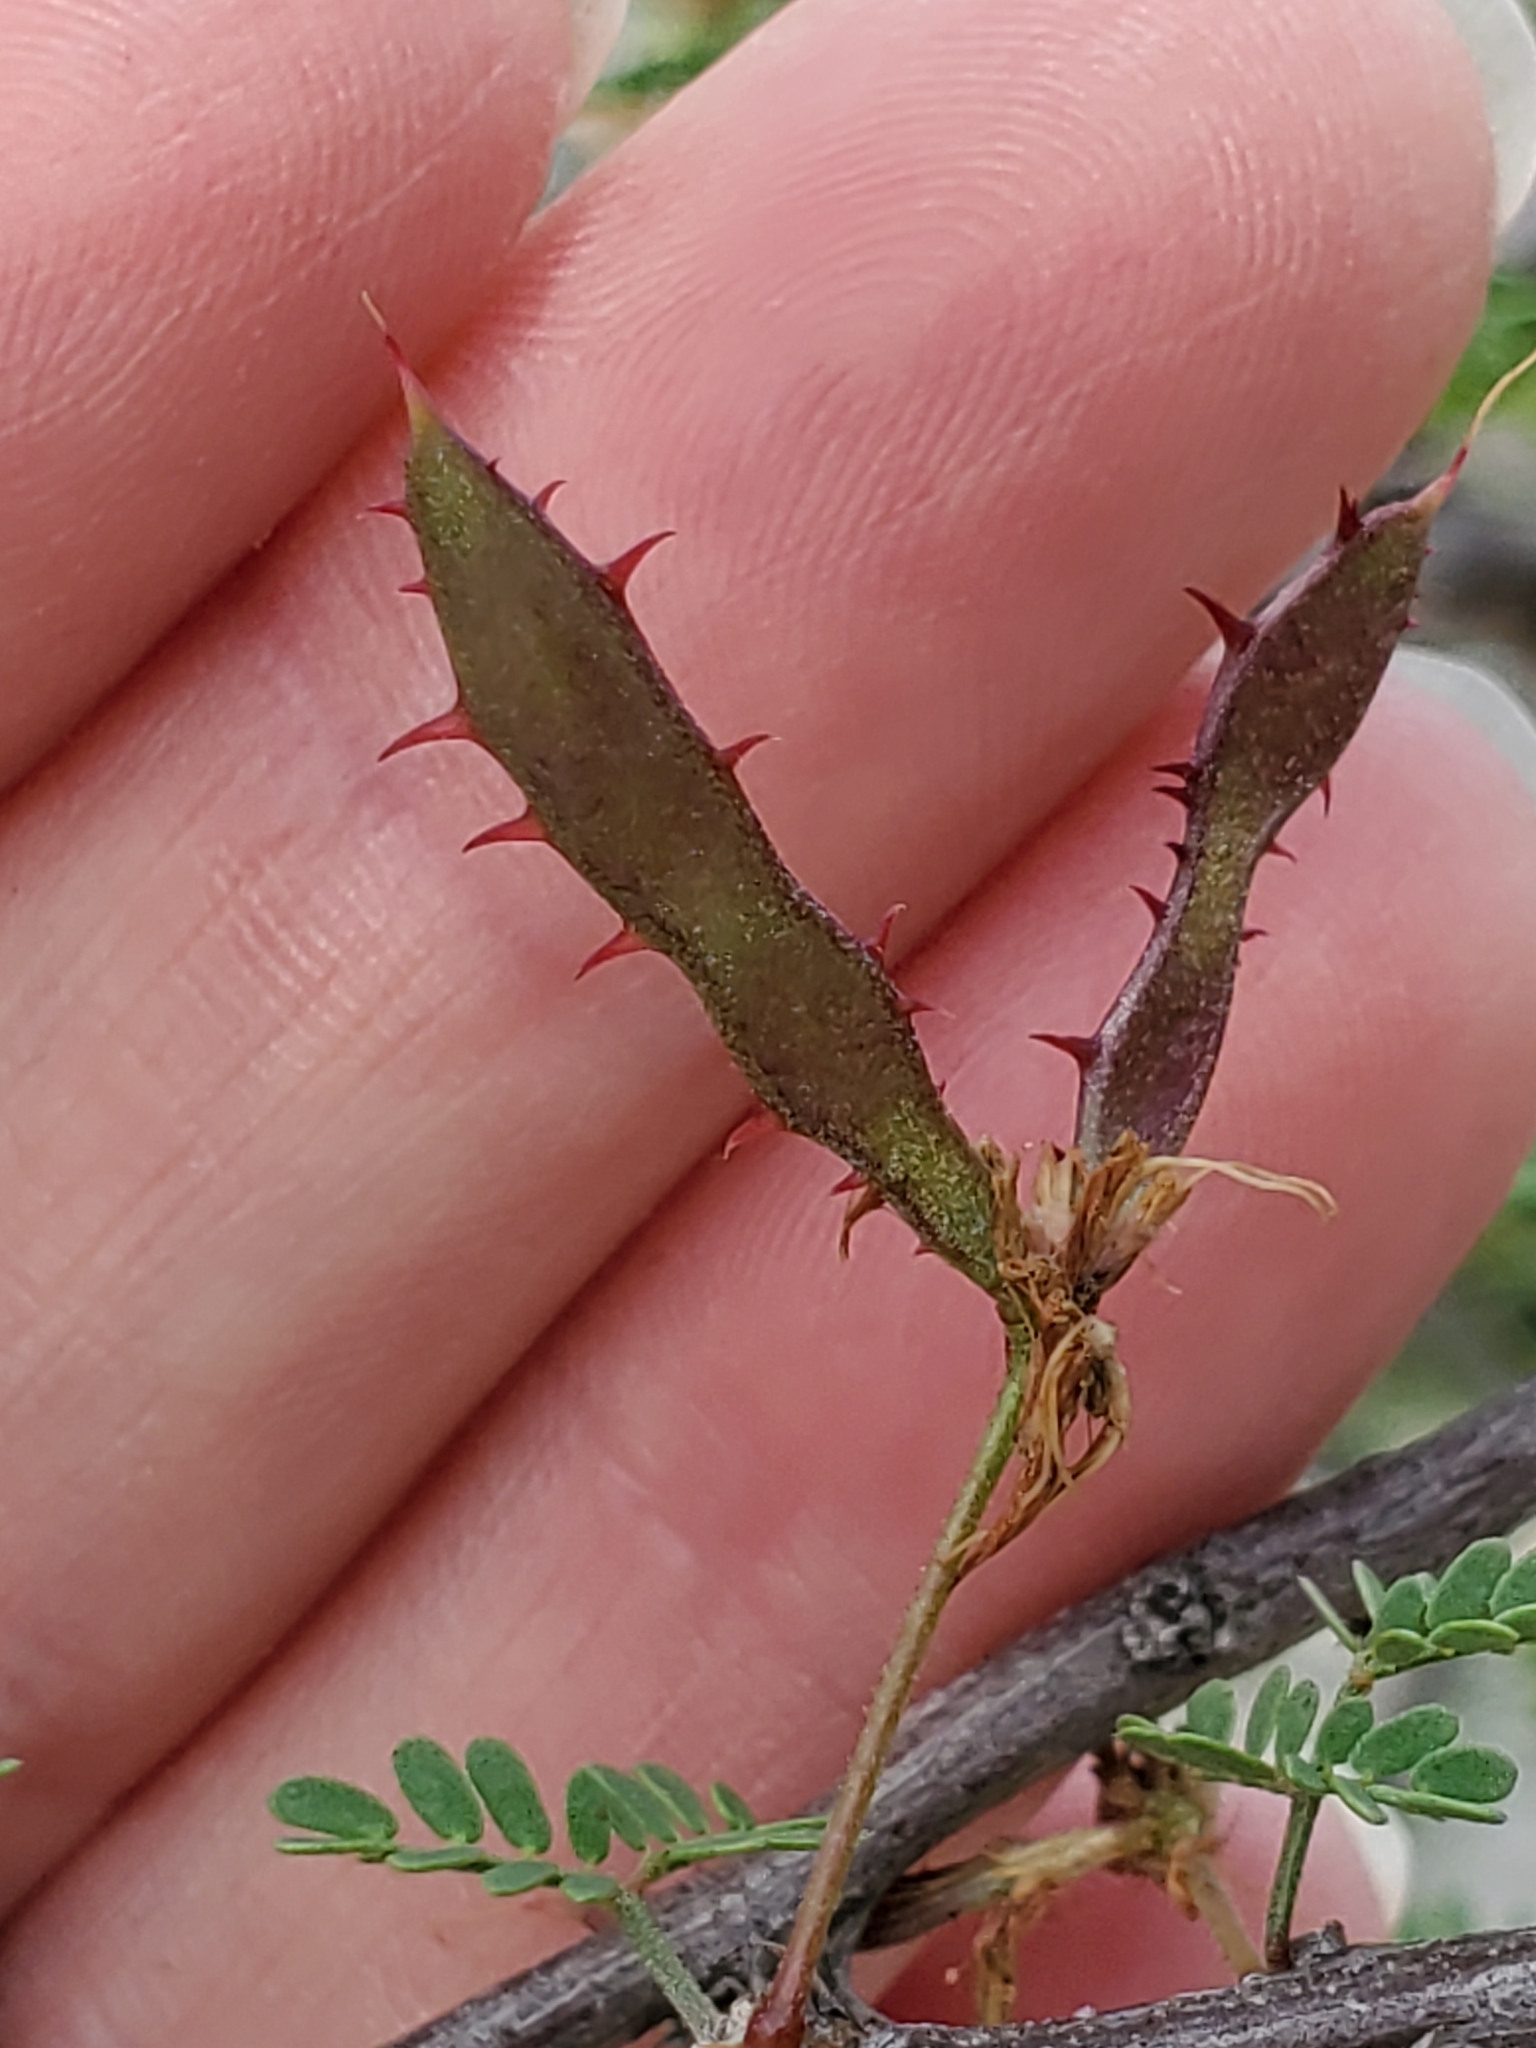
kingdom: Plantae
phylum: Tracheophyta
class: Magnoliopsida
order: Fabales
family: Fabaceae
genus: Mimosa
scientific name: Mimosa texana
